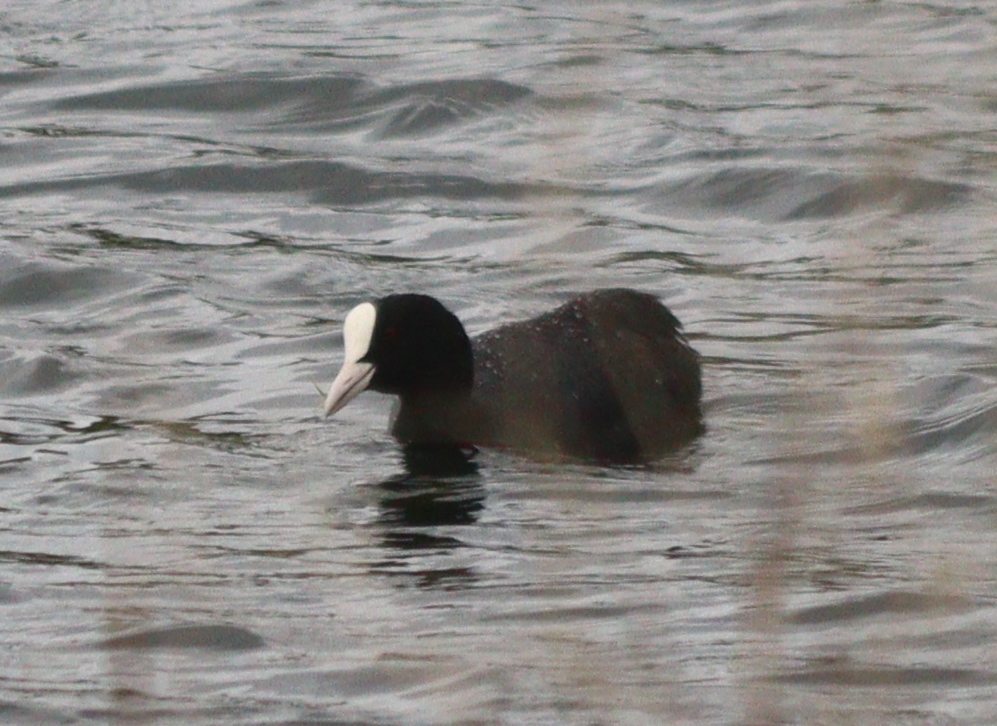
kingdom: Animalia
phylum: Chordata
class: Aves
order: Gruiformes
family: Rallidae
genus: Fulica
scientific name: Fulica atra
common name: Eurasian coot
